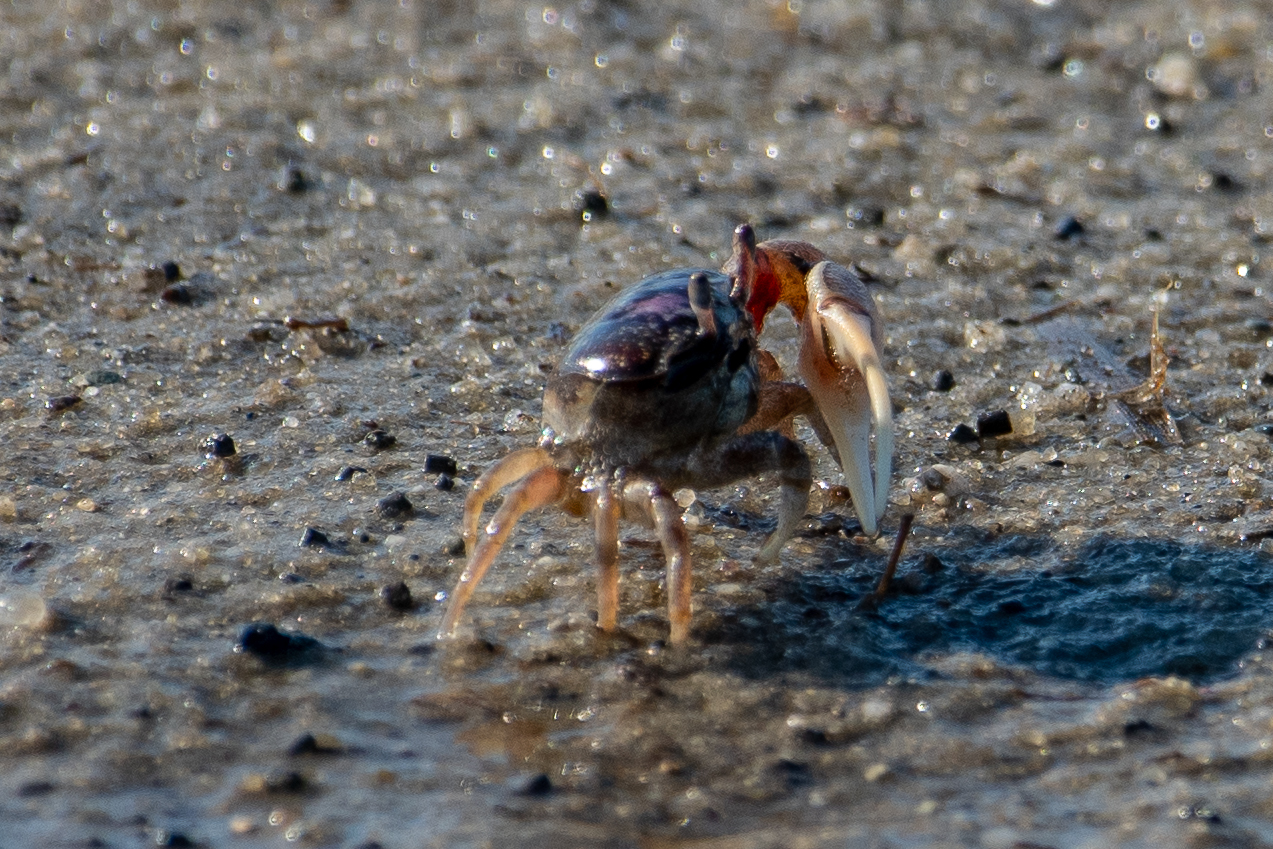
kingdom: Animalia
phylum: Arthropoda
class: Malacostraca
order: Decapoda
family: Ocypodidae
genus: Leptuca
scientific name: Leptuca pugilator
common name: Atlantic sand fiddler crab
